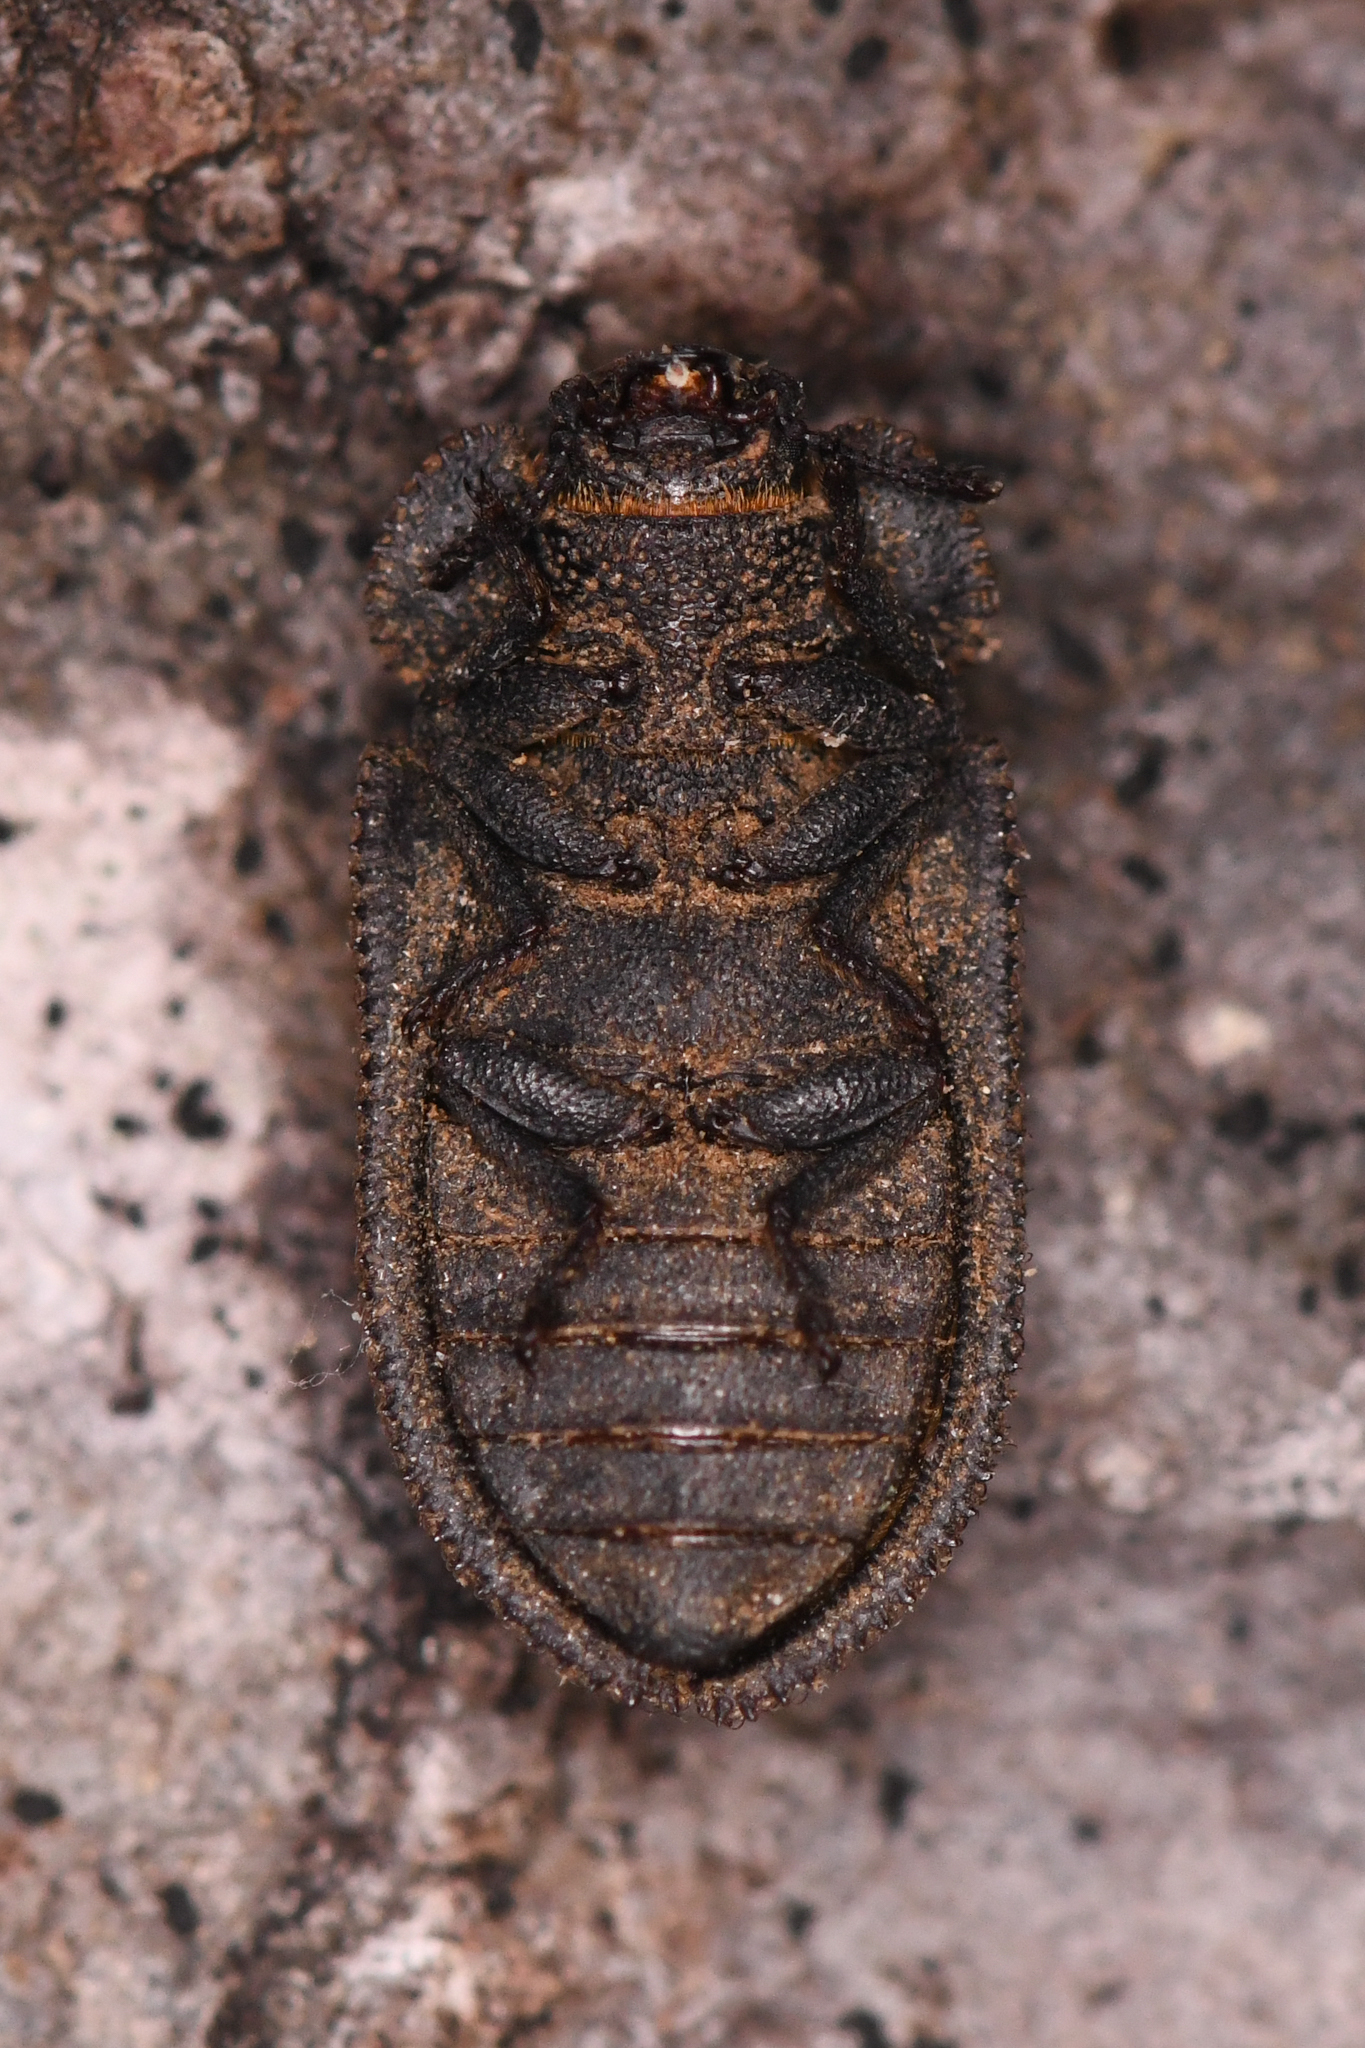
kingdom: Animalia
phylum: Arthropoda
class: Insecta
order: Coleoptera
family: Trogossitidae
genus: Calitys
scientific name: Calitys scabra
